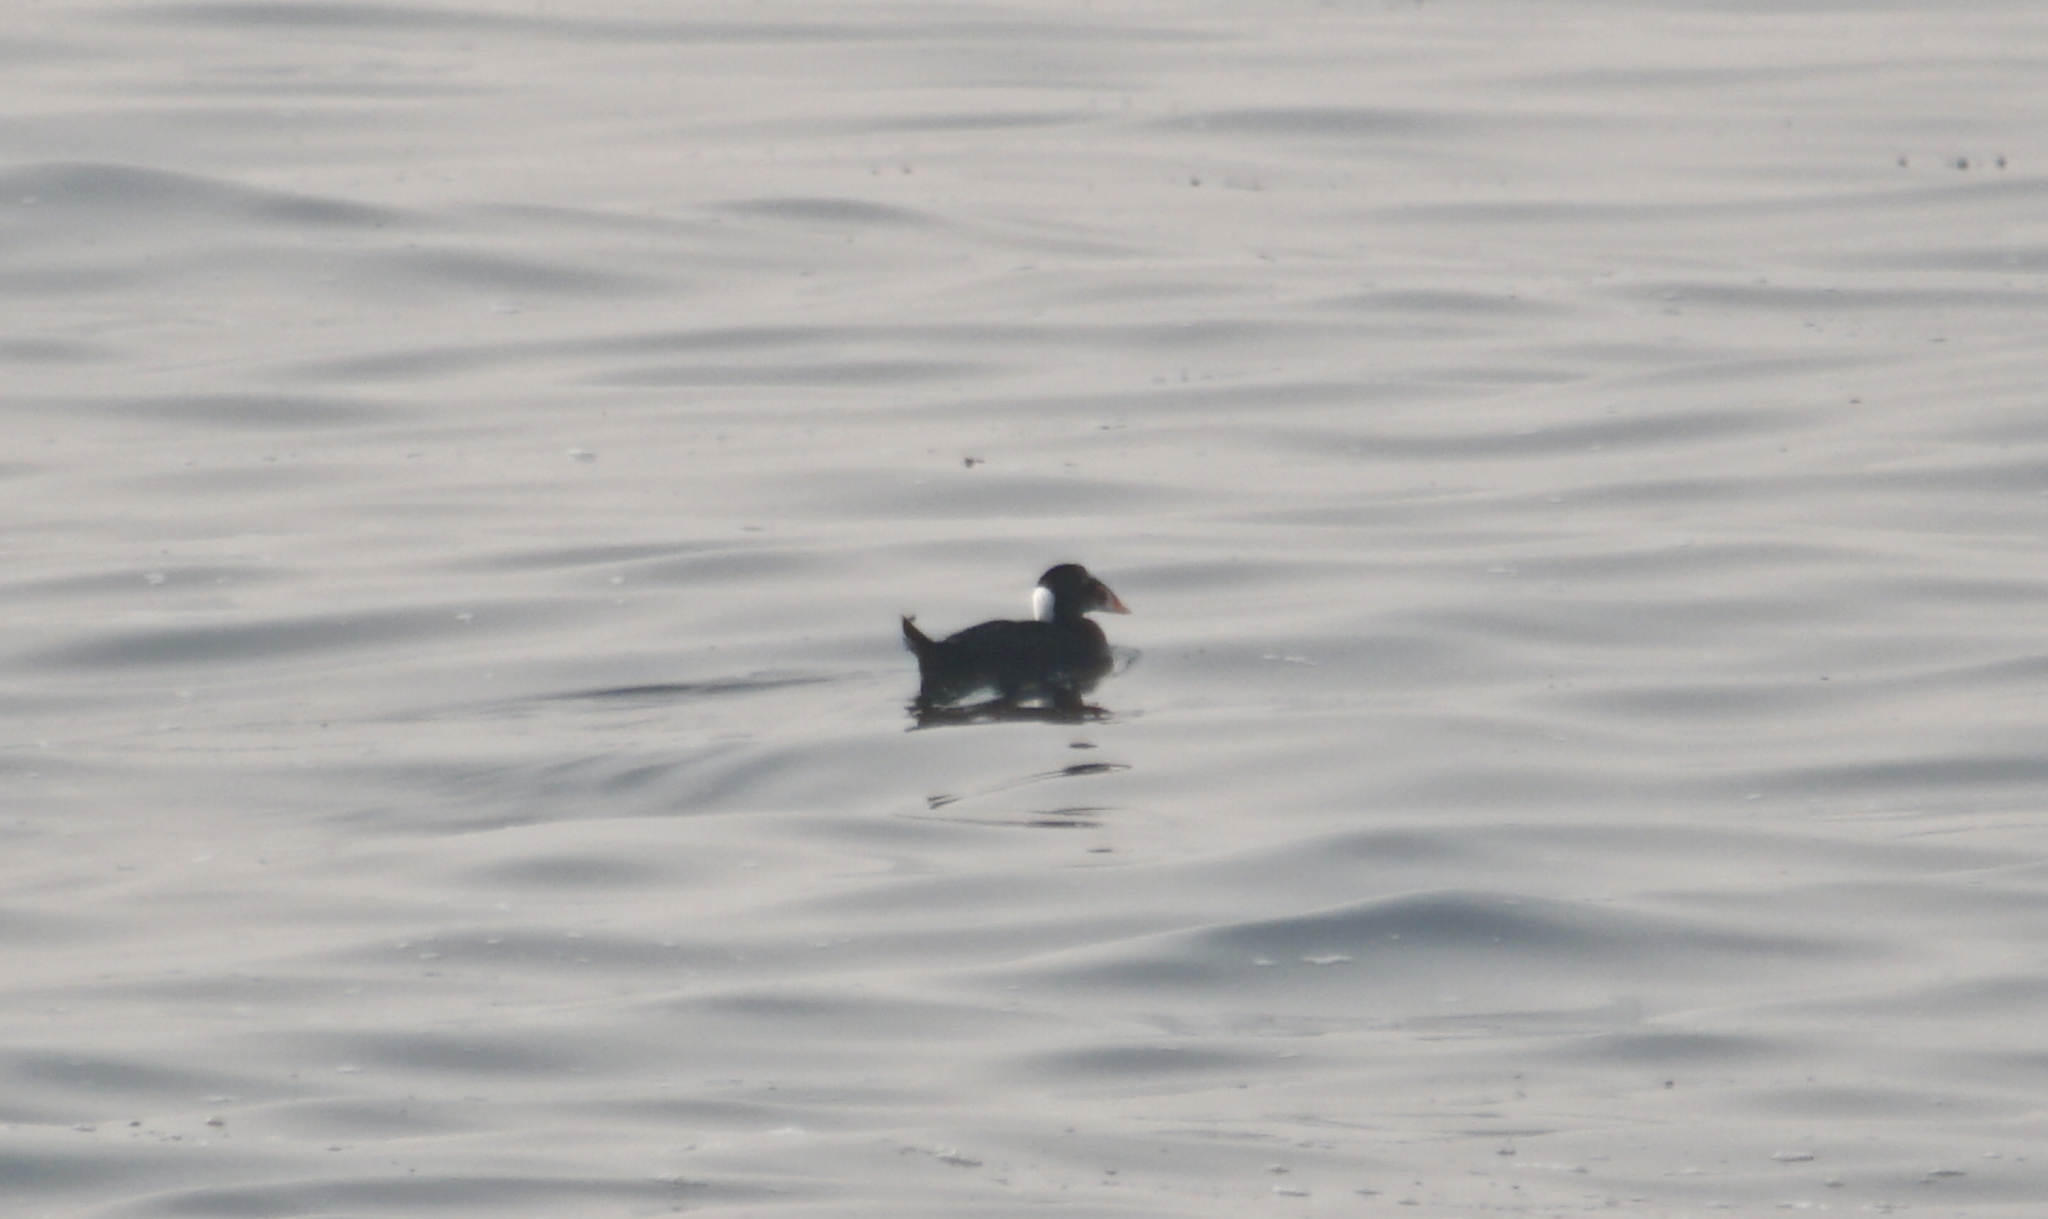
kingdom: Animalia
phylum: Chordata
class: Aves
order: Anseriformes
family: Anatidae
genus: Melanitta
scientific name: Melanitta perspicillata
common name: Surf scoter
